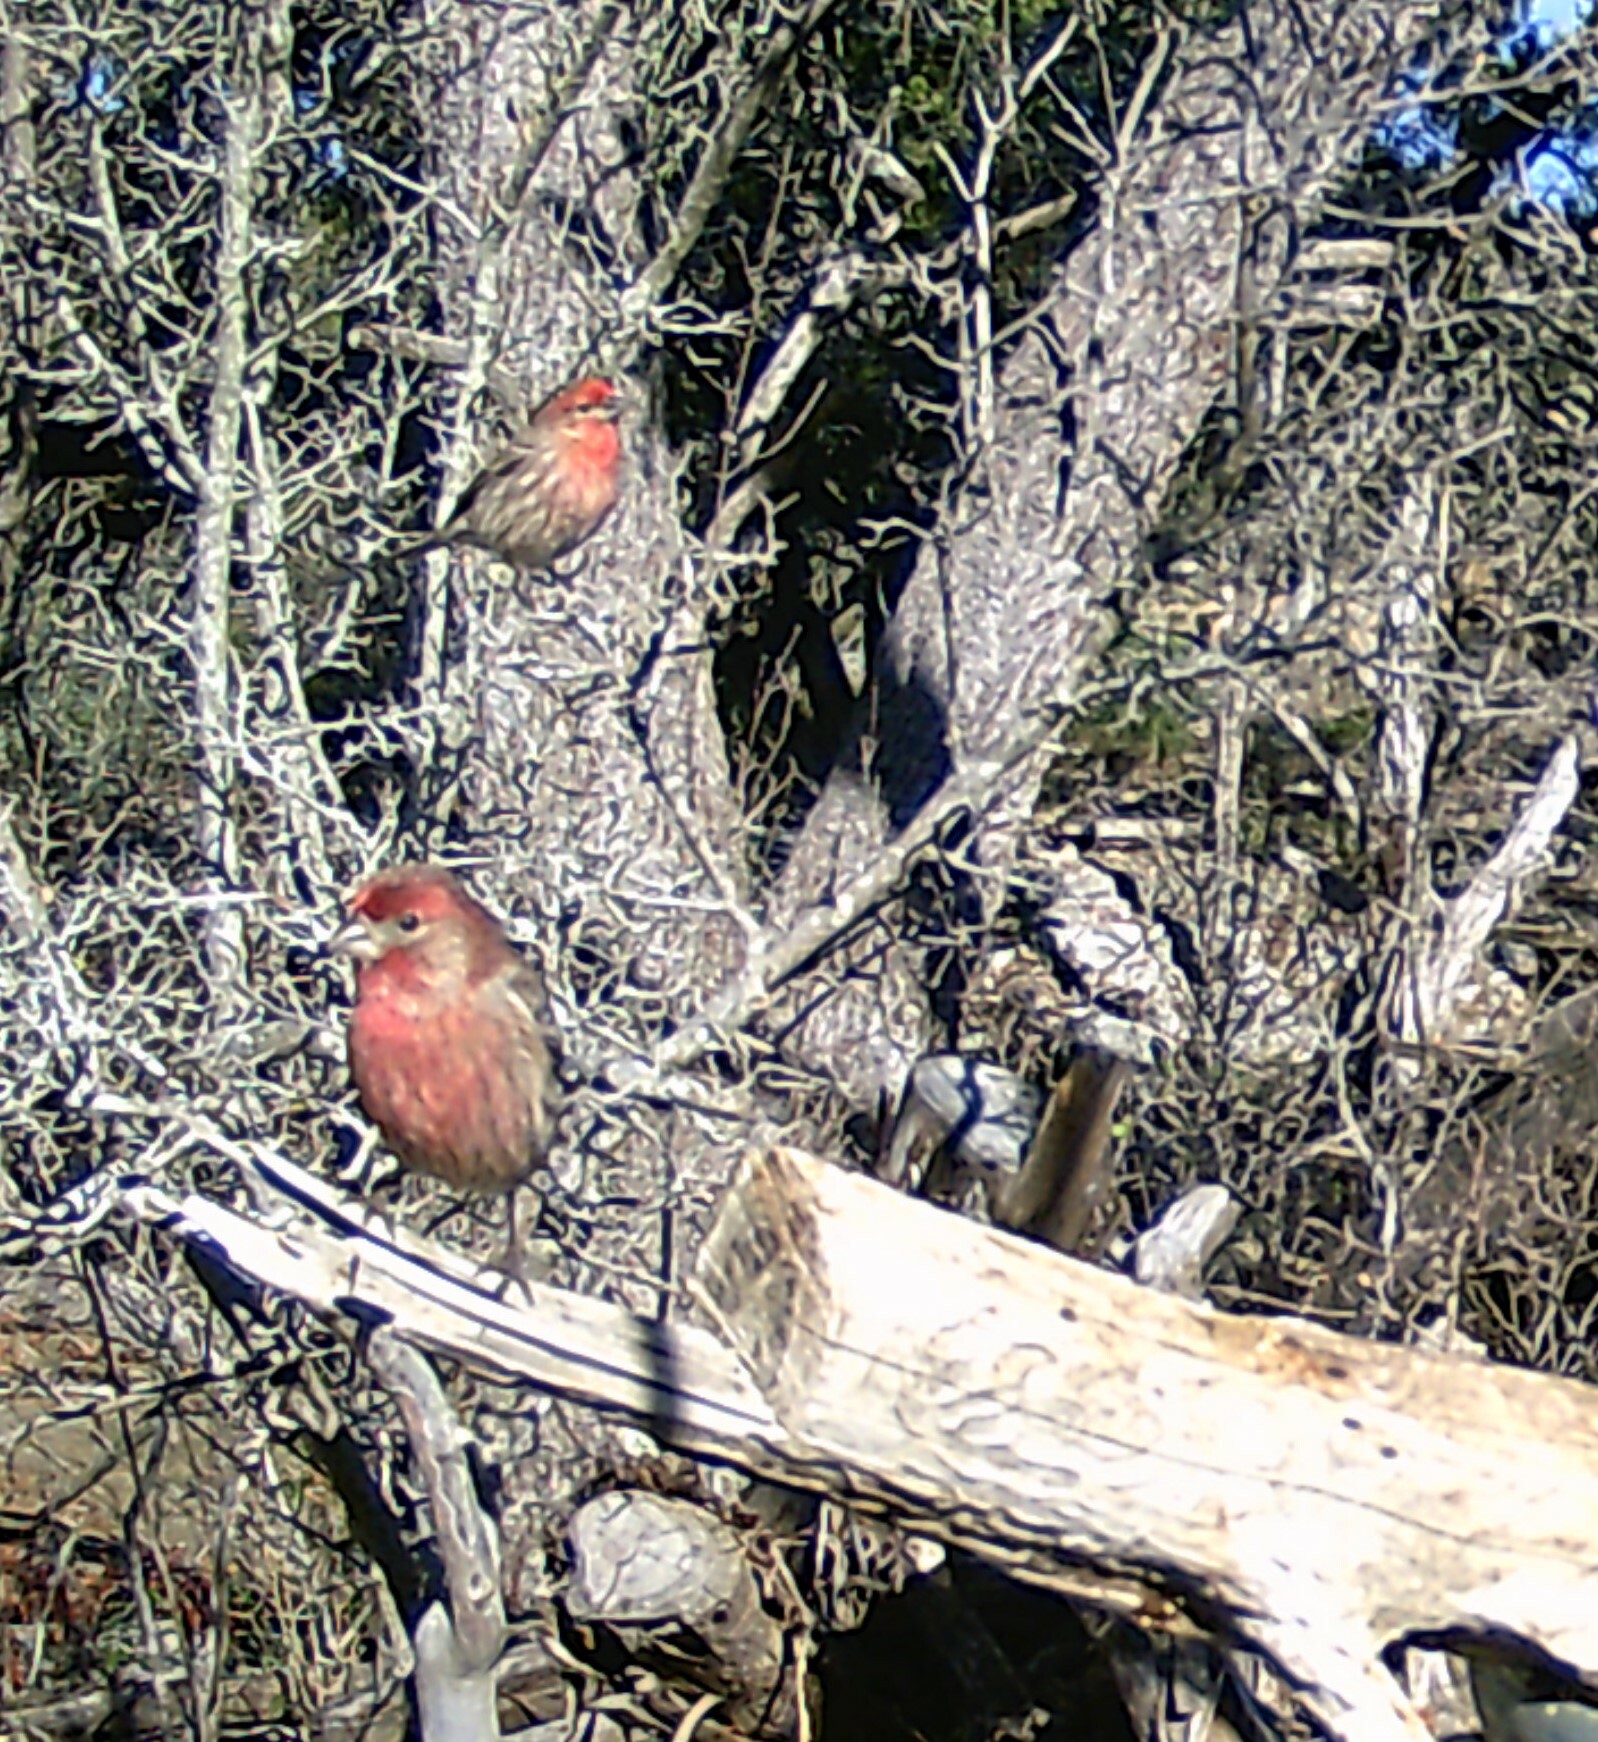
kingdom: Animalia
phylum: Chordata
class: Aves
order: Passeriformes
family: Fringillidae
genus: Haemorhous
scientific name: Haemorhous mexicanus
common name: House finch
